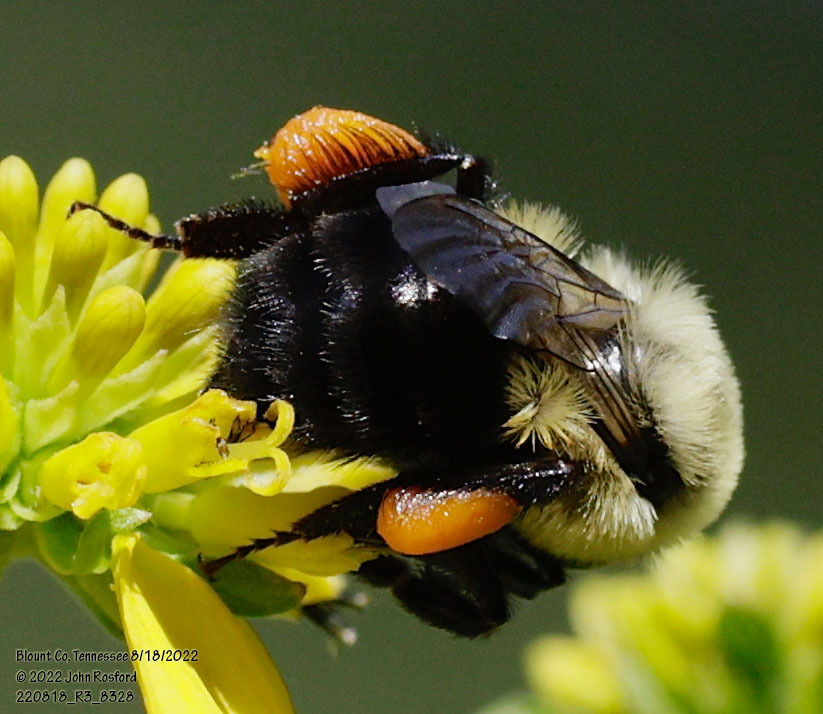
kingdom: Animalia
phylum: Arthropoda
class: Insecta
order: Hymenoptera
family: Apidae
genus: Bombus
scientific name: Bombus impatiens
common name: Common eastern bumble bee
